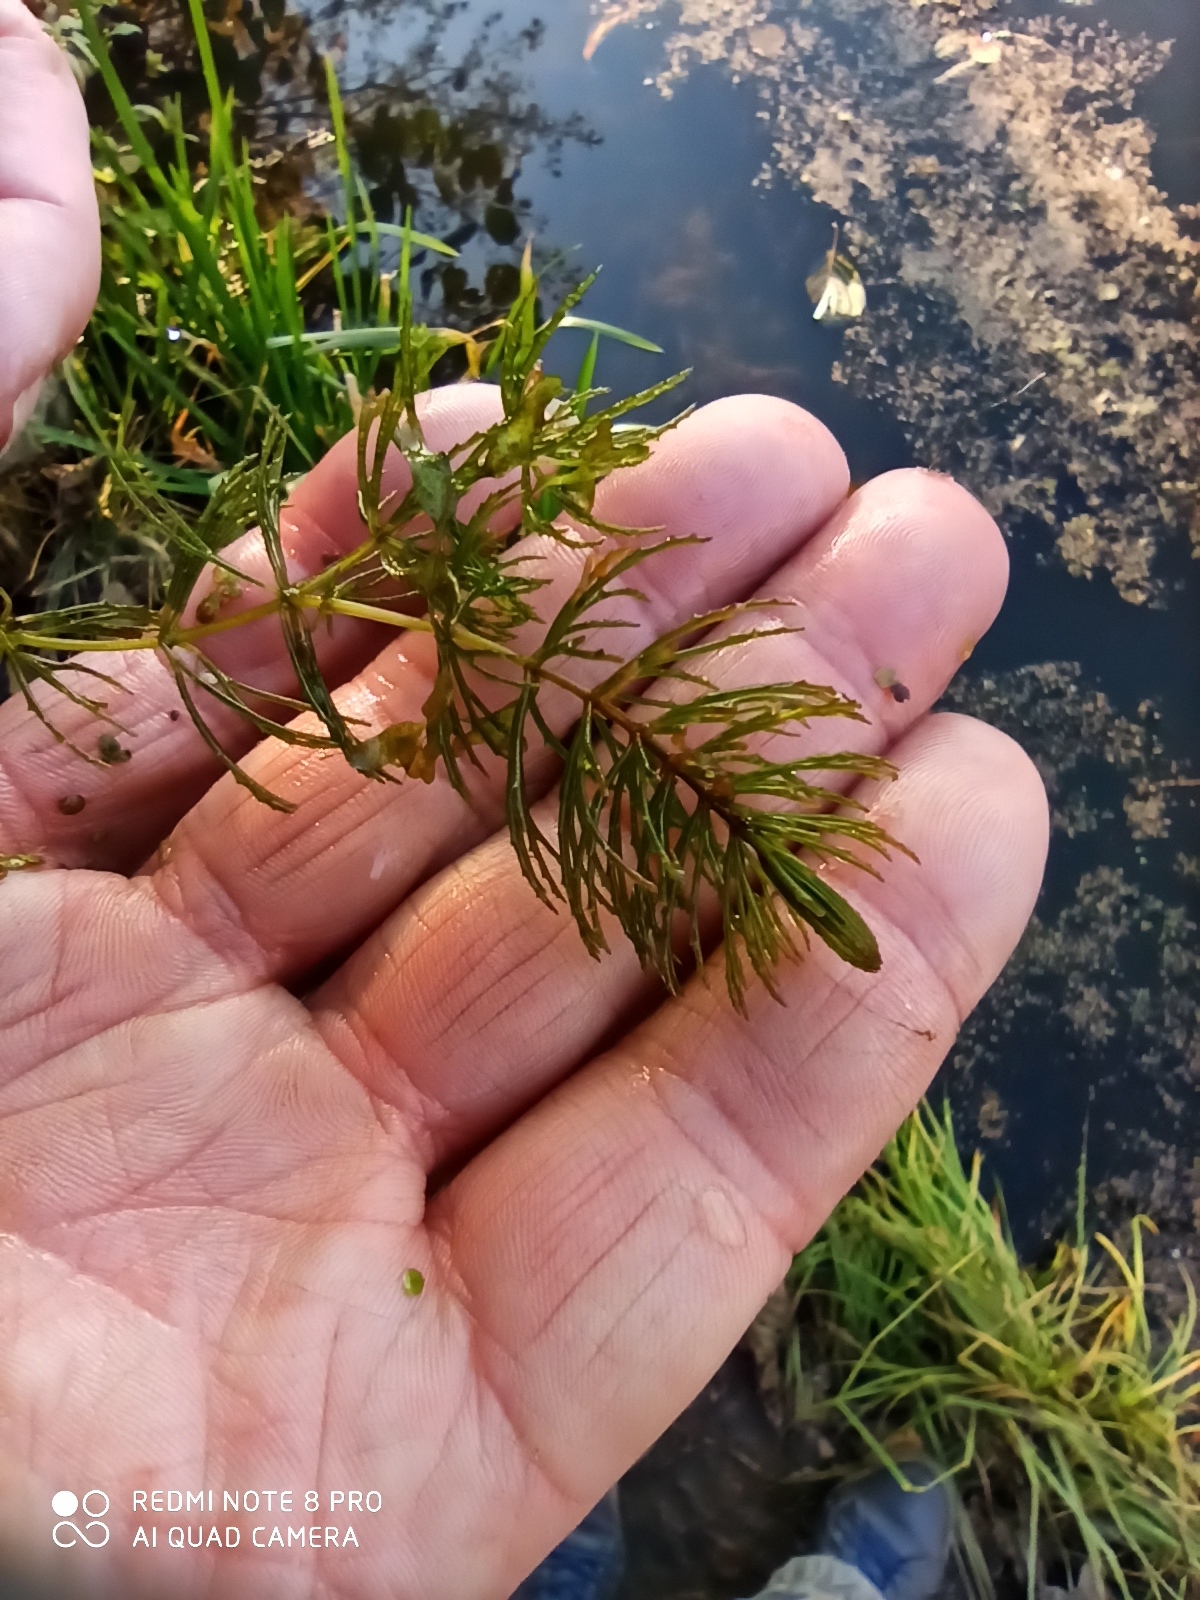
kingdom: Plantae
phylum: Tracheophyta
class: Magnoliopsida
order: Ceratophyllales
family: Ceratophyllaceae
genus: Ceratophyllum
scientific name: Ceratophyllum demersum
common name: Rigid hornwort
